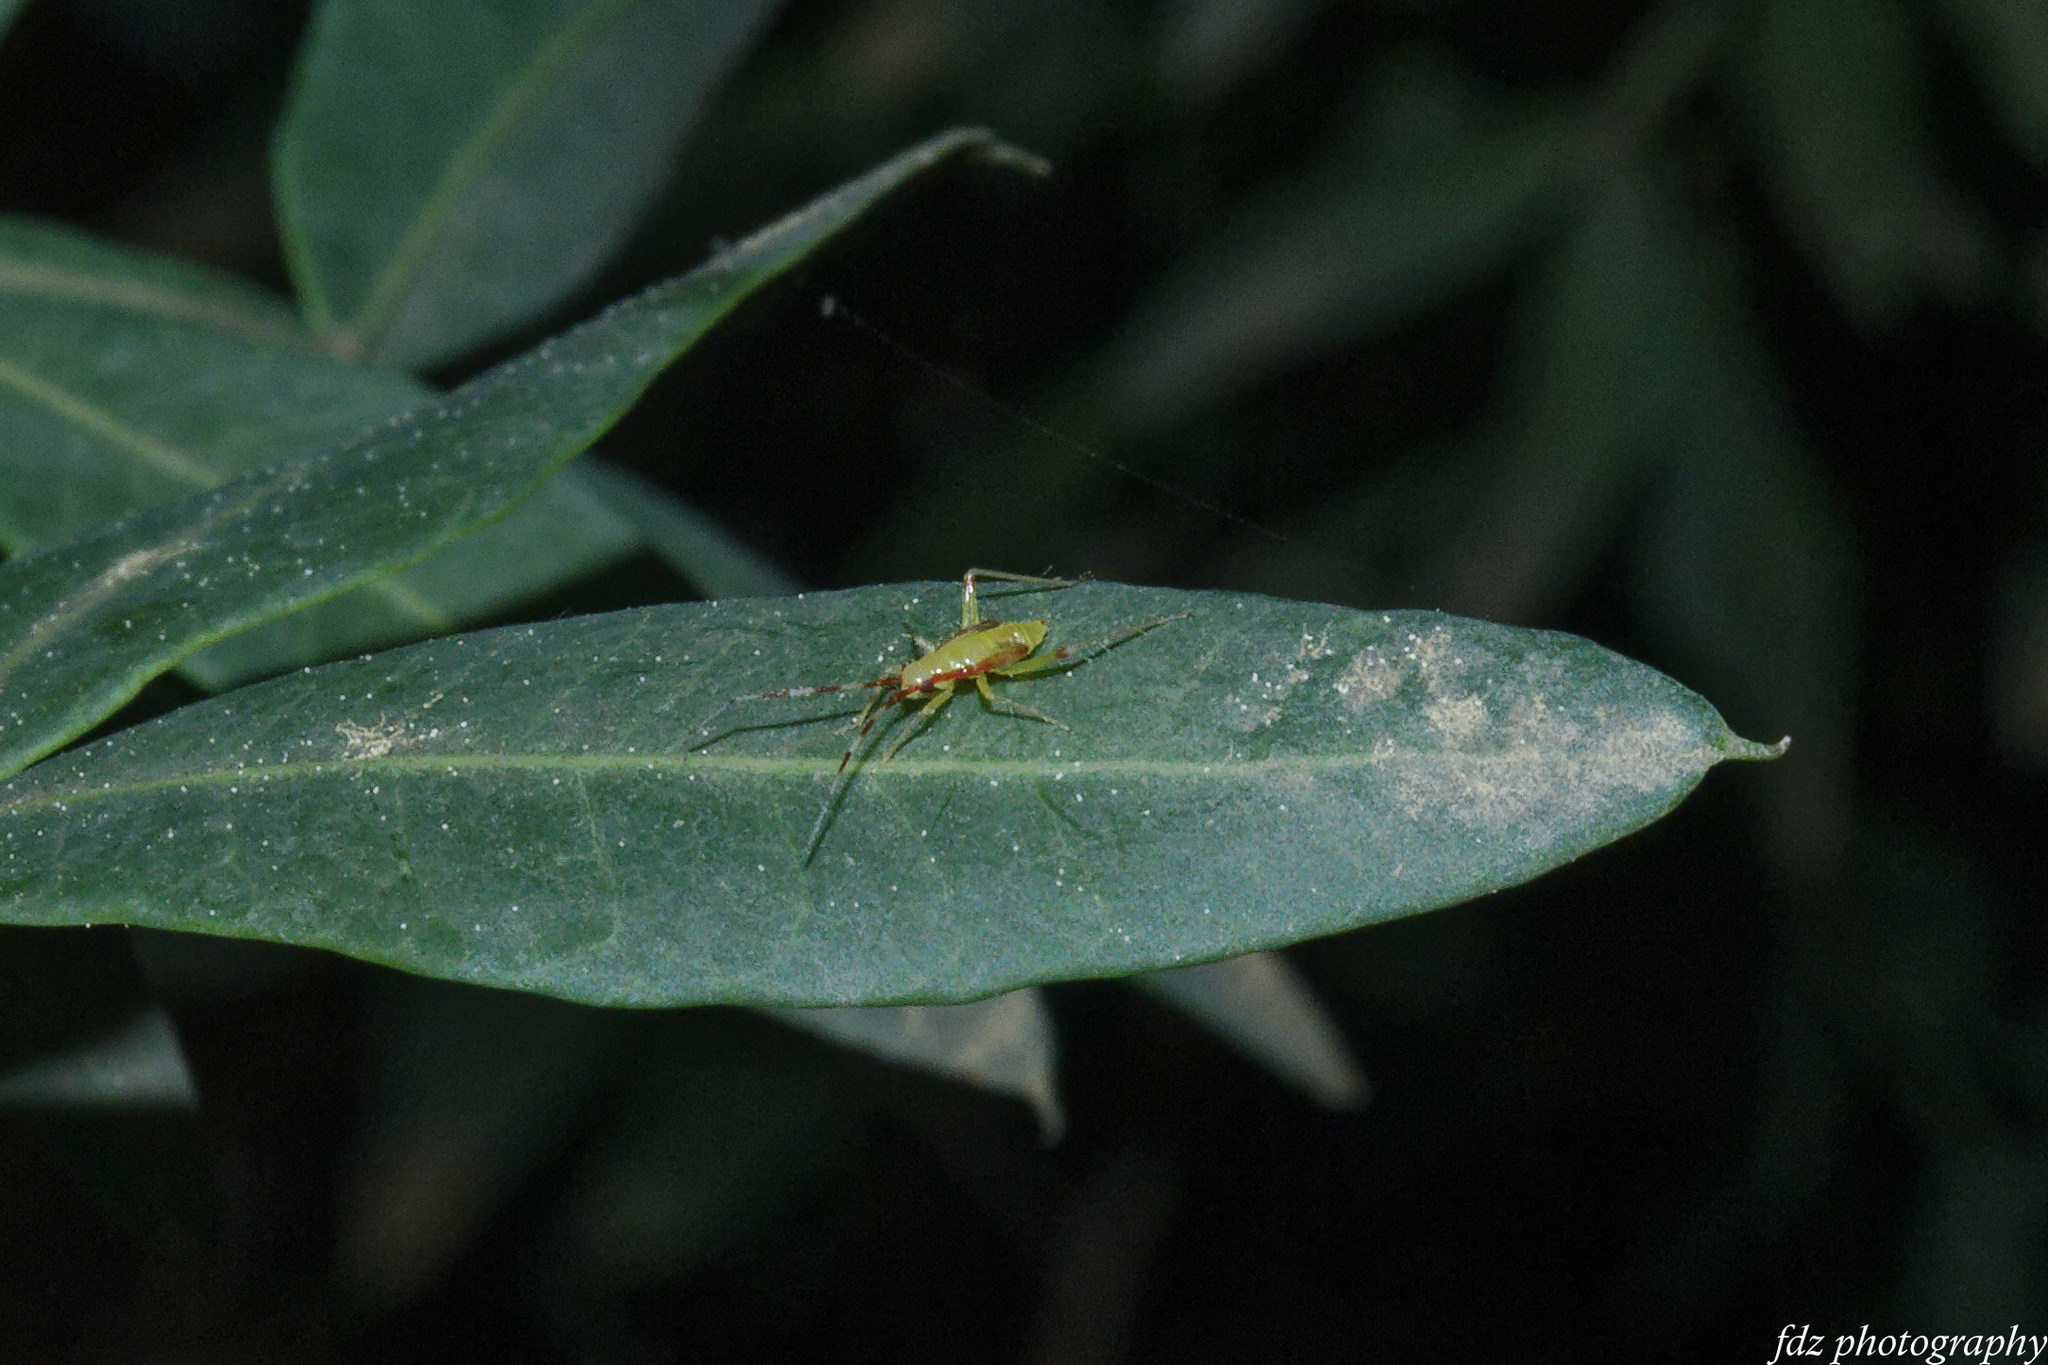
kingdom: Animalia
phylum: Arthropoda
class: Insecta
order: Hemiptera
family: Miridae
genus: Campyloneura
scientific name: Campyloneura virgula
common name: Predatory bug
